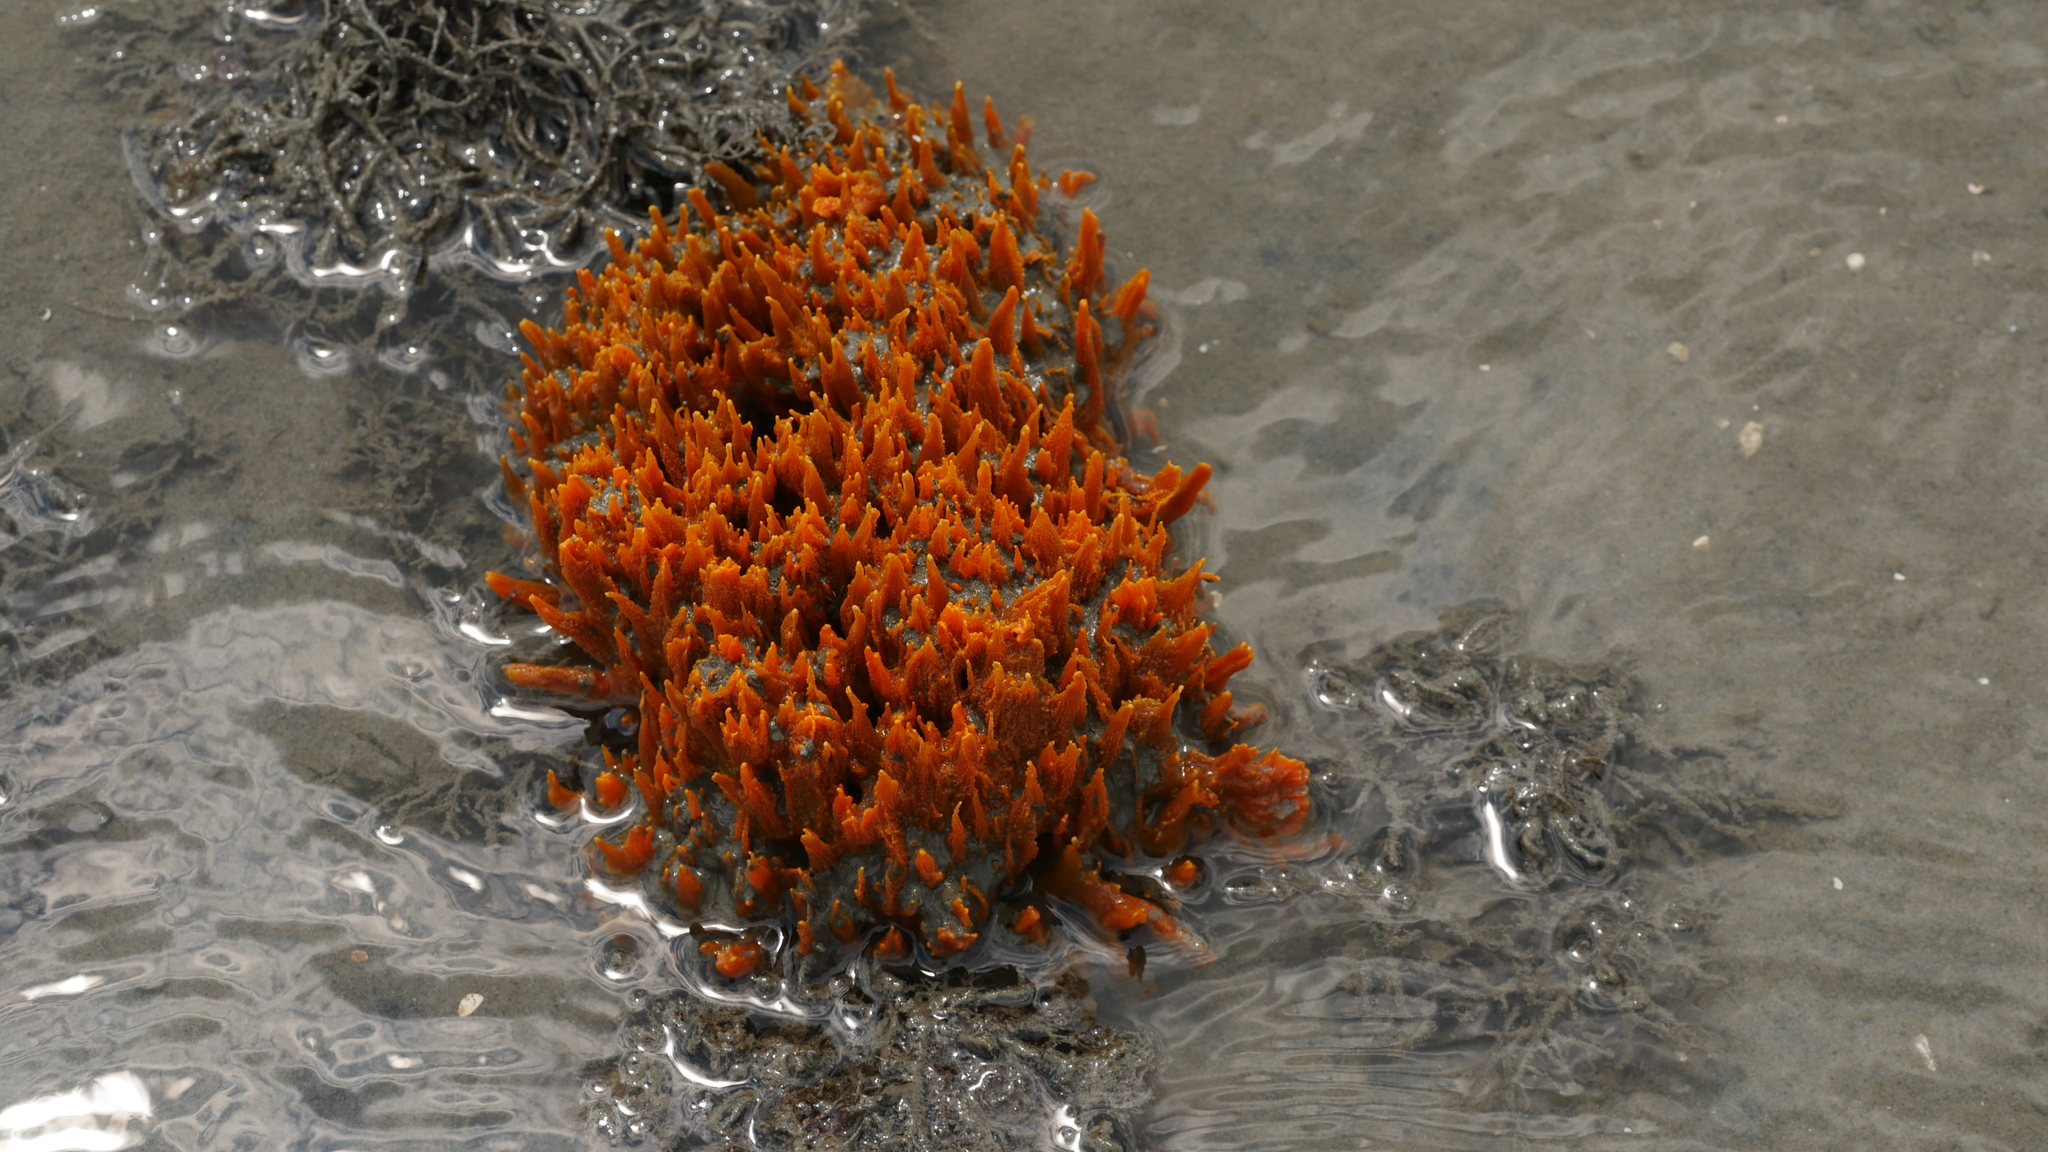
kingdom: Animalia
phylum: Porifera
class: Demospongiae
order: Suberitida
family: Halichondriidae
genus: Hymeniacidon
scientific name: Hymeniacidon heliophila
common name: Diurnal horny sponge
